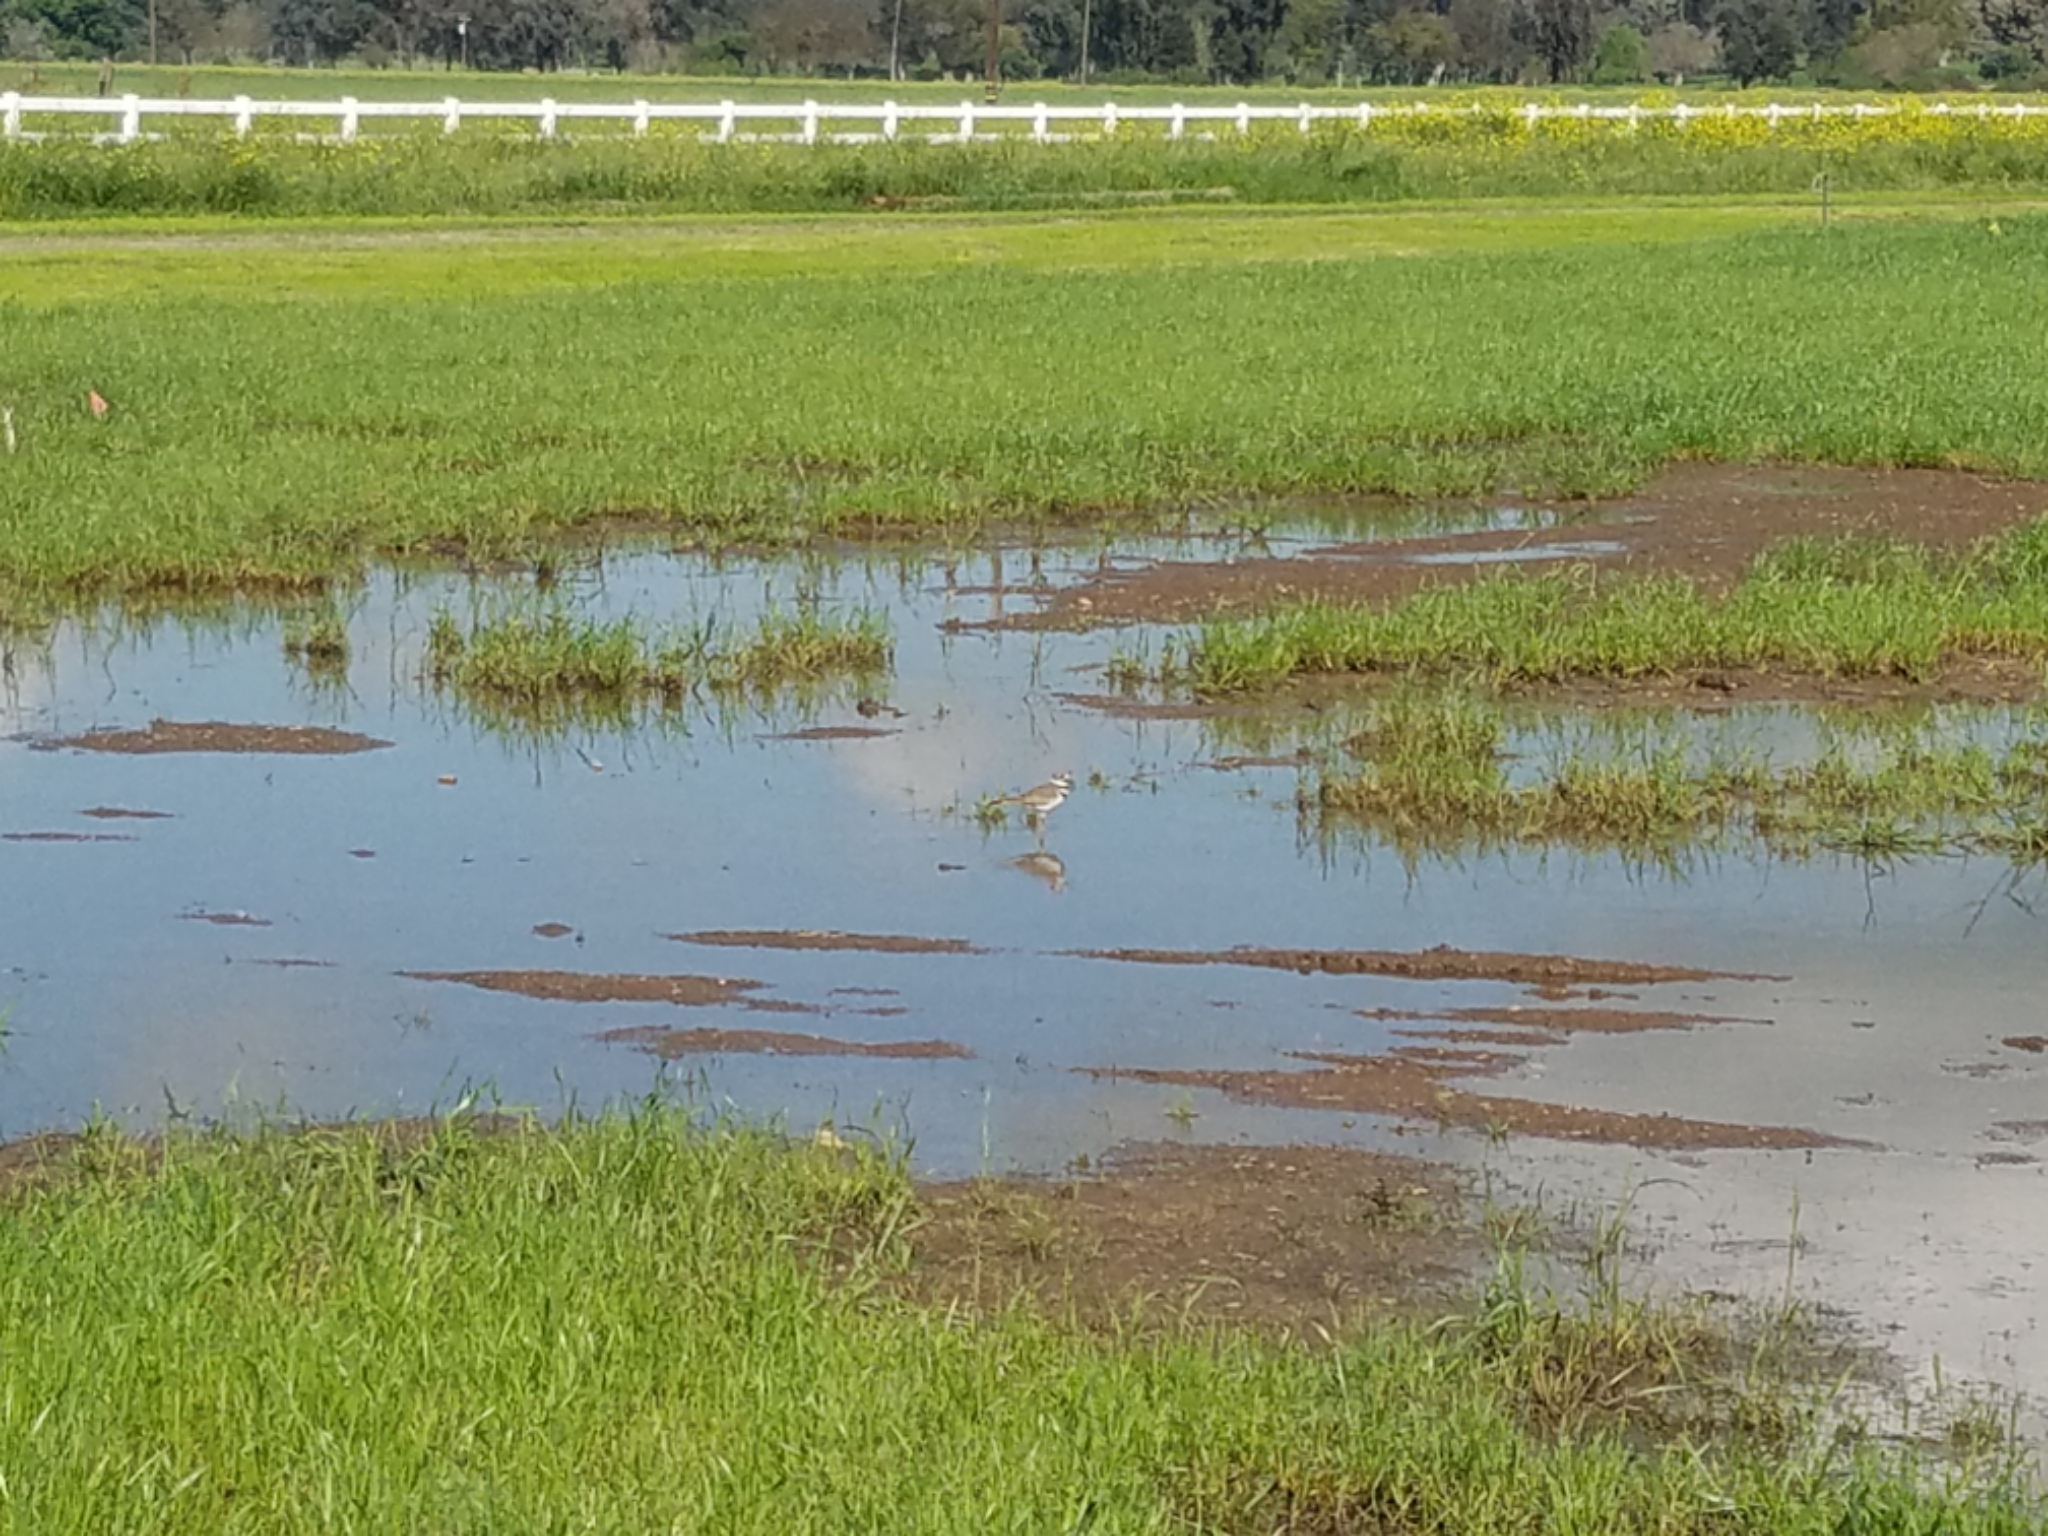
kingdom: Animalia
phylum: Chordata
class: Aves
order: Charadriiformes
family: Charadriidae
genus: Charadrius
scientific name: Charadrius vociferus
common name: Killdeer
